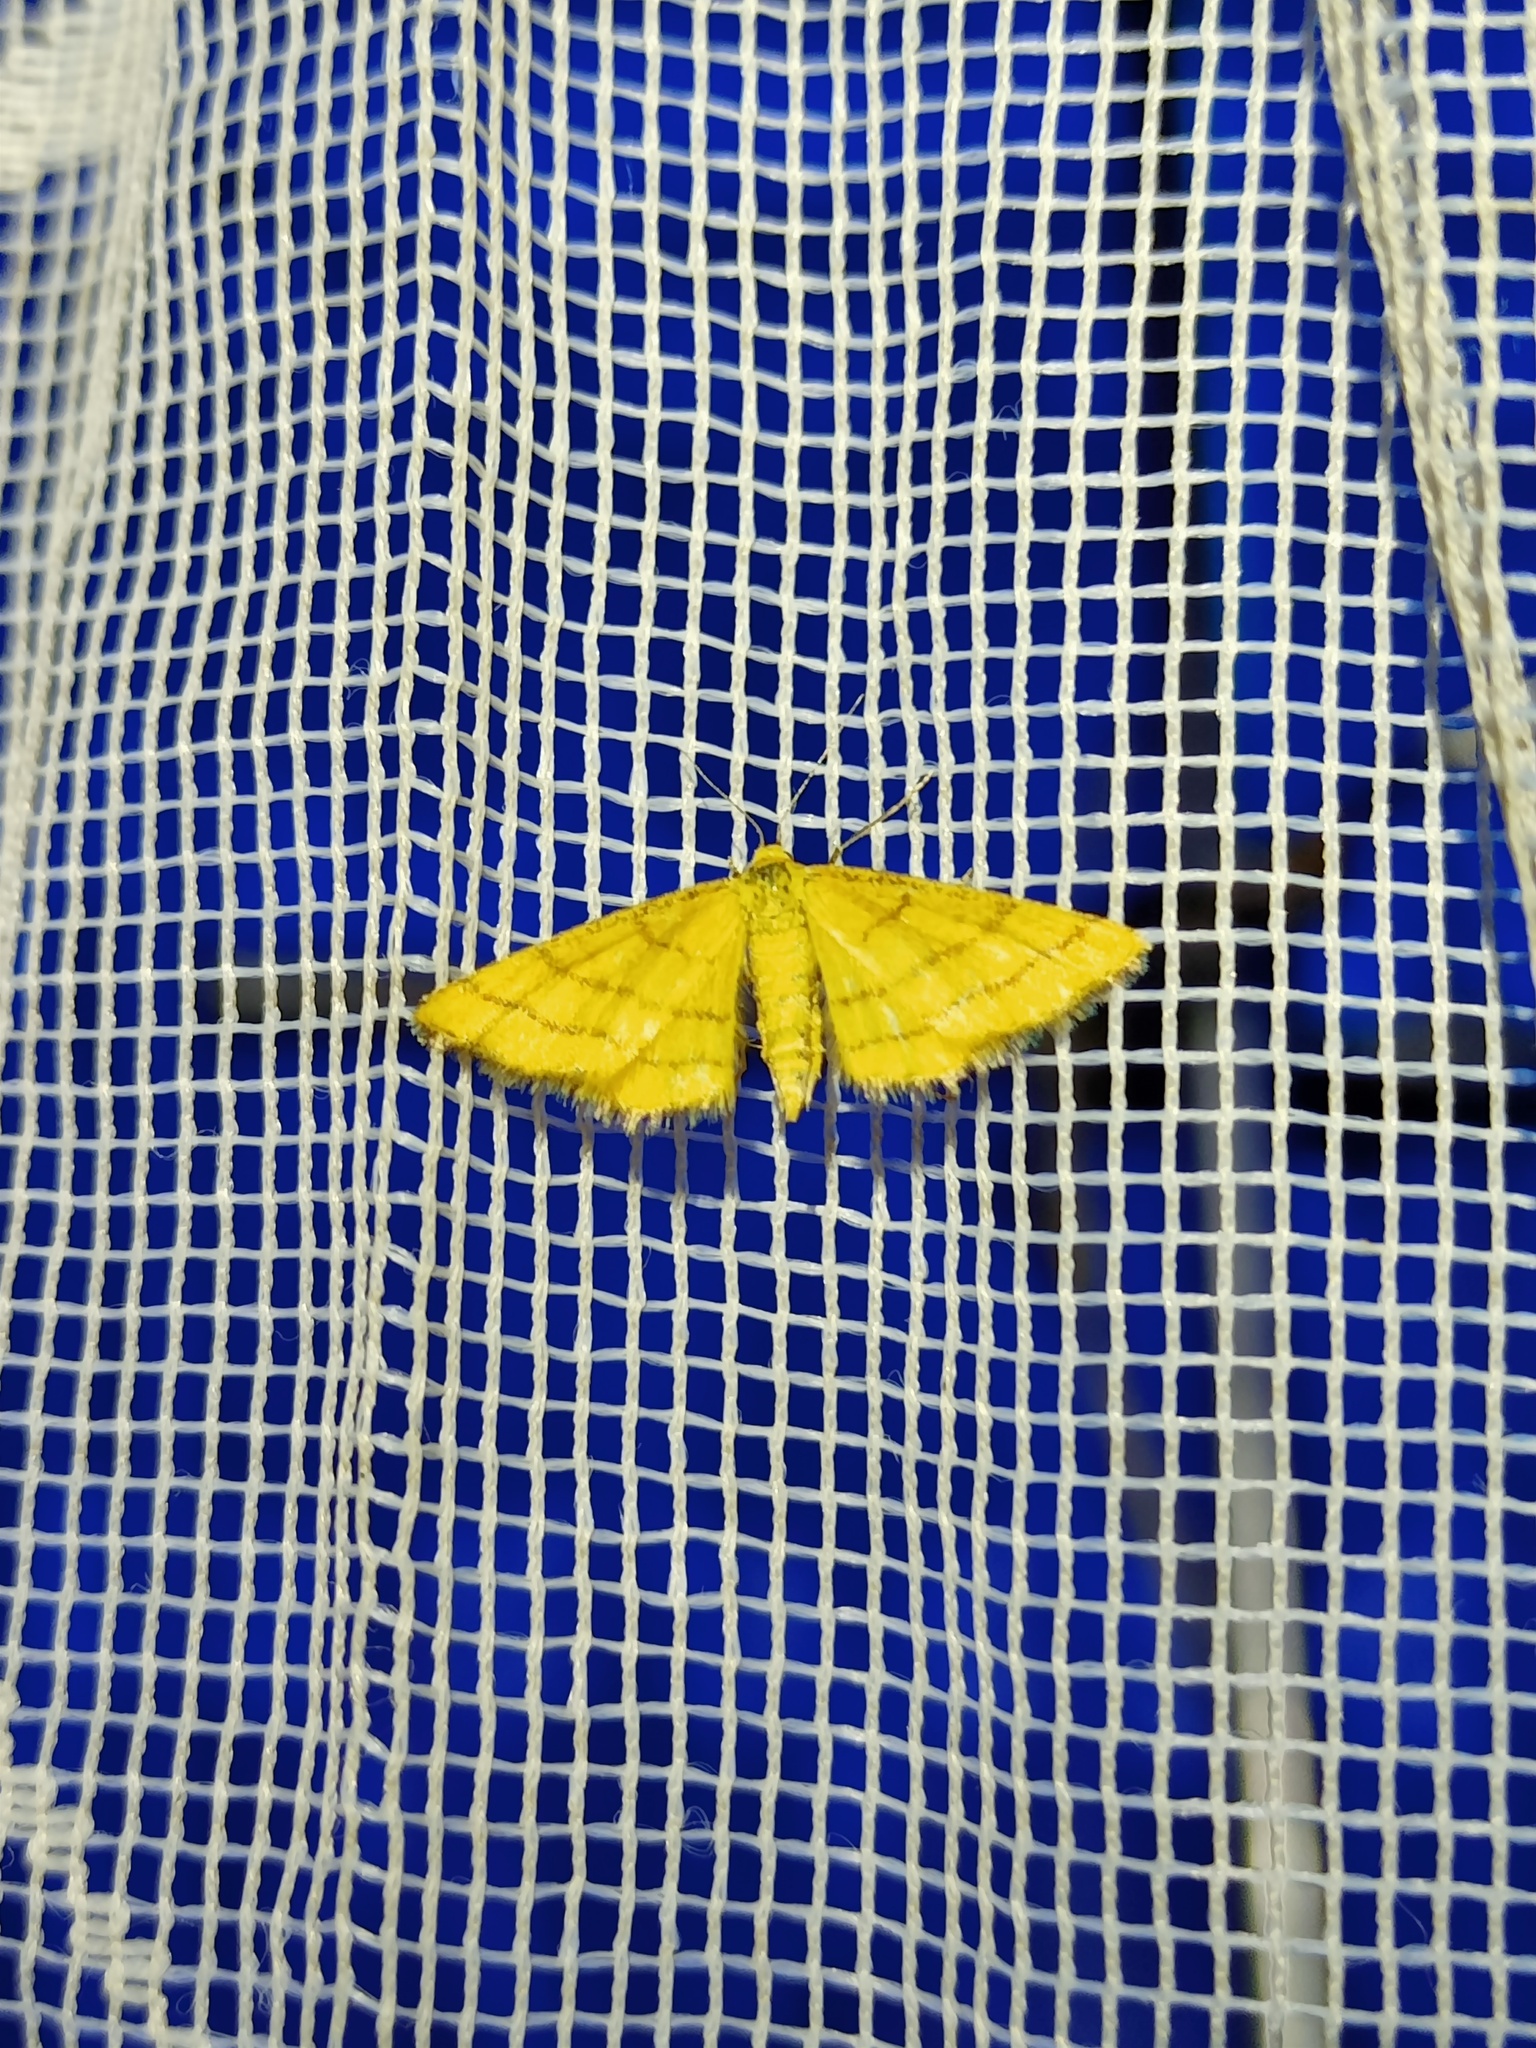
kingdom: Animalia
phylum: Arthropoda
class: Insecta
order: Lepidoptera
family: Geometridae
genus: Idaea
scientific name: Idaea aureolaria
